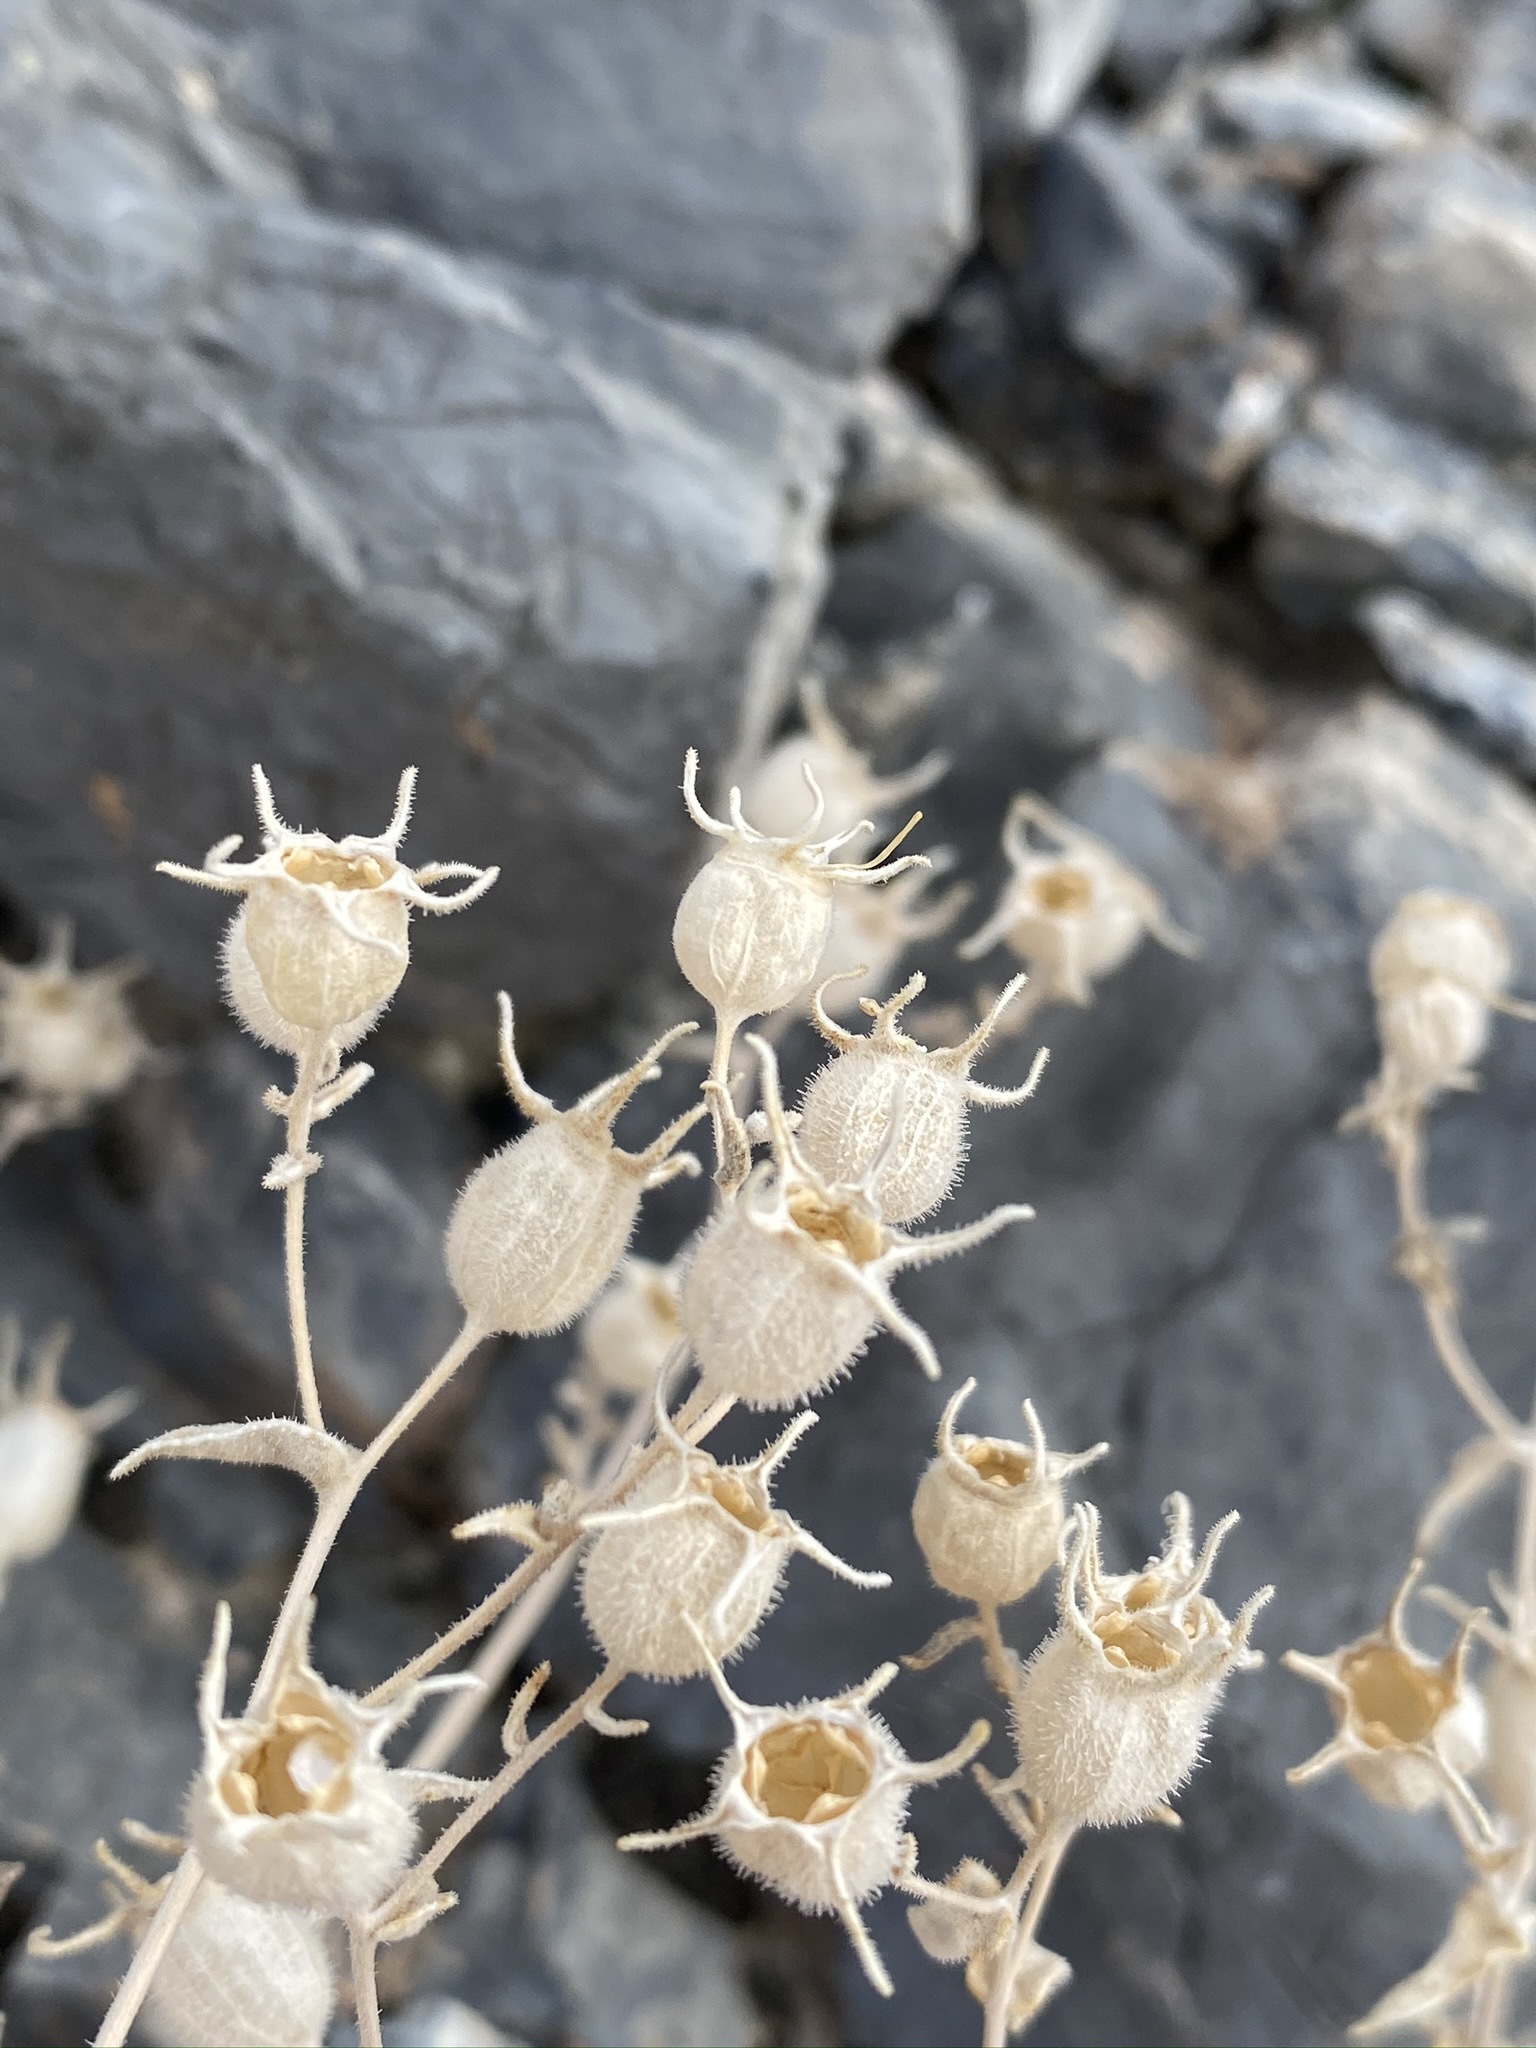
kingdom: Plantae
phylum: Tracheophyta
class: Magnoliopsida
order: Cornales
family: Loasaceae
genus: Mentzelia
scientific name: Mentzelia oreophila
